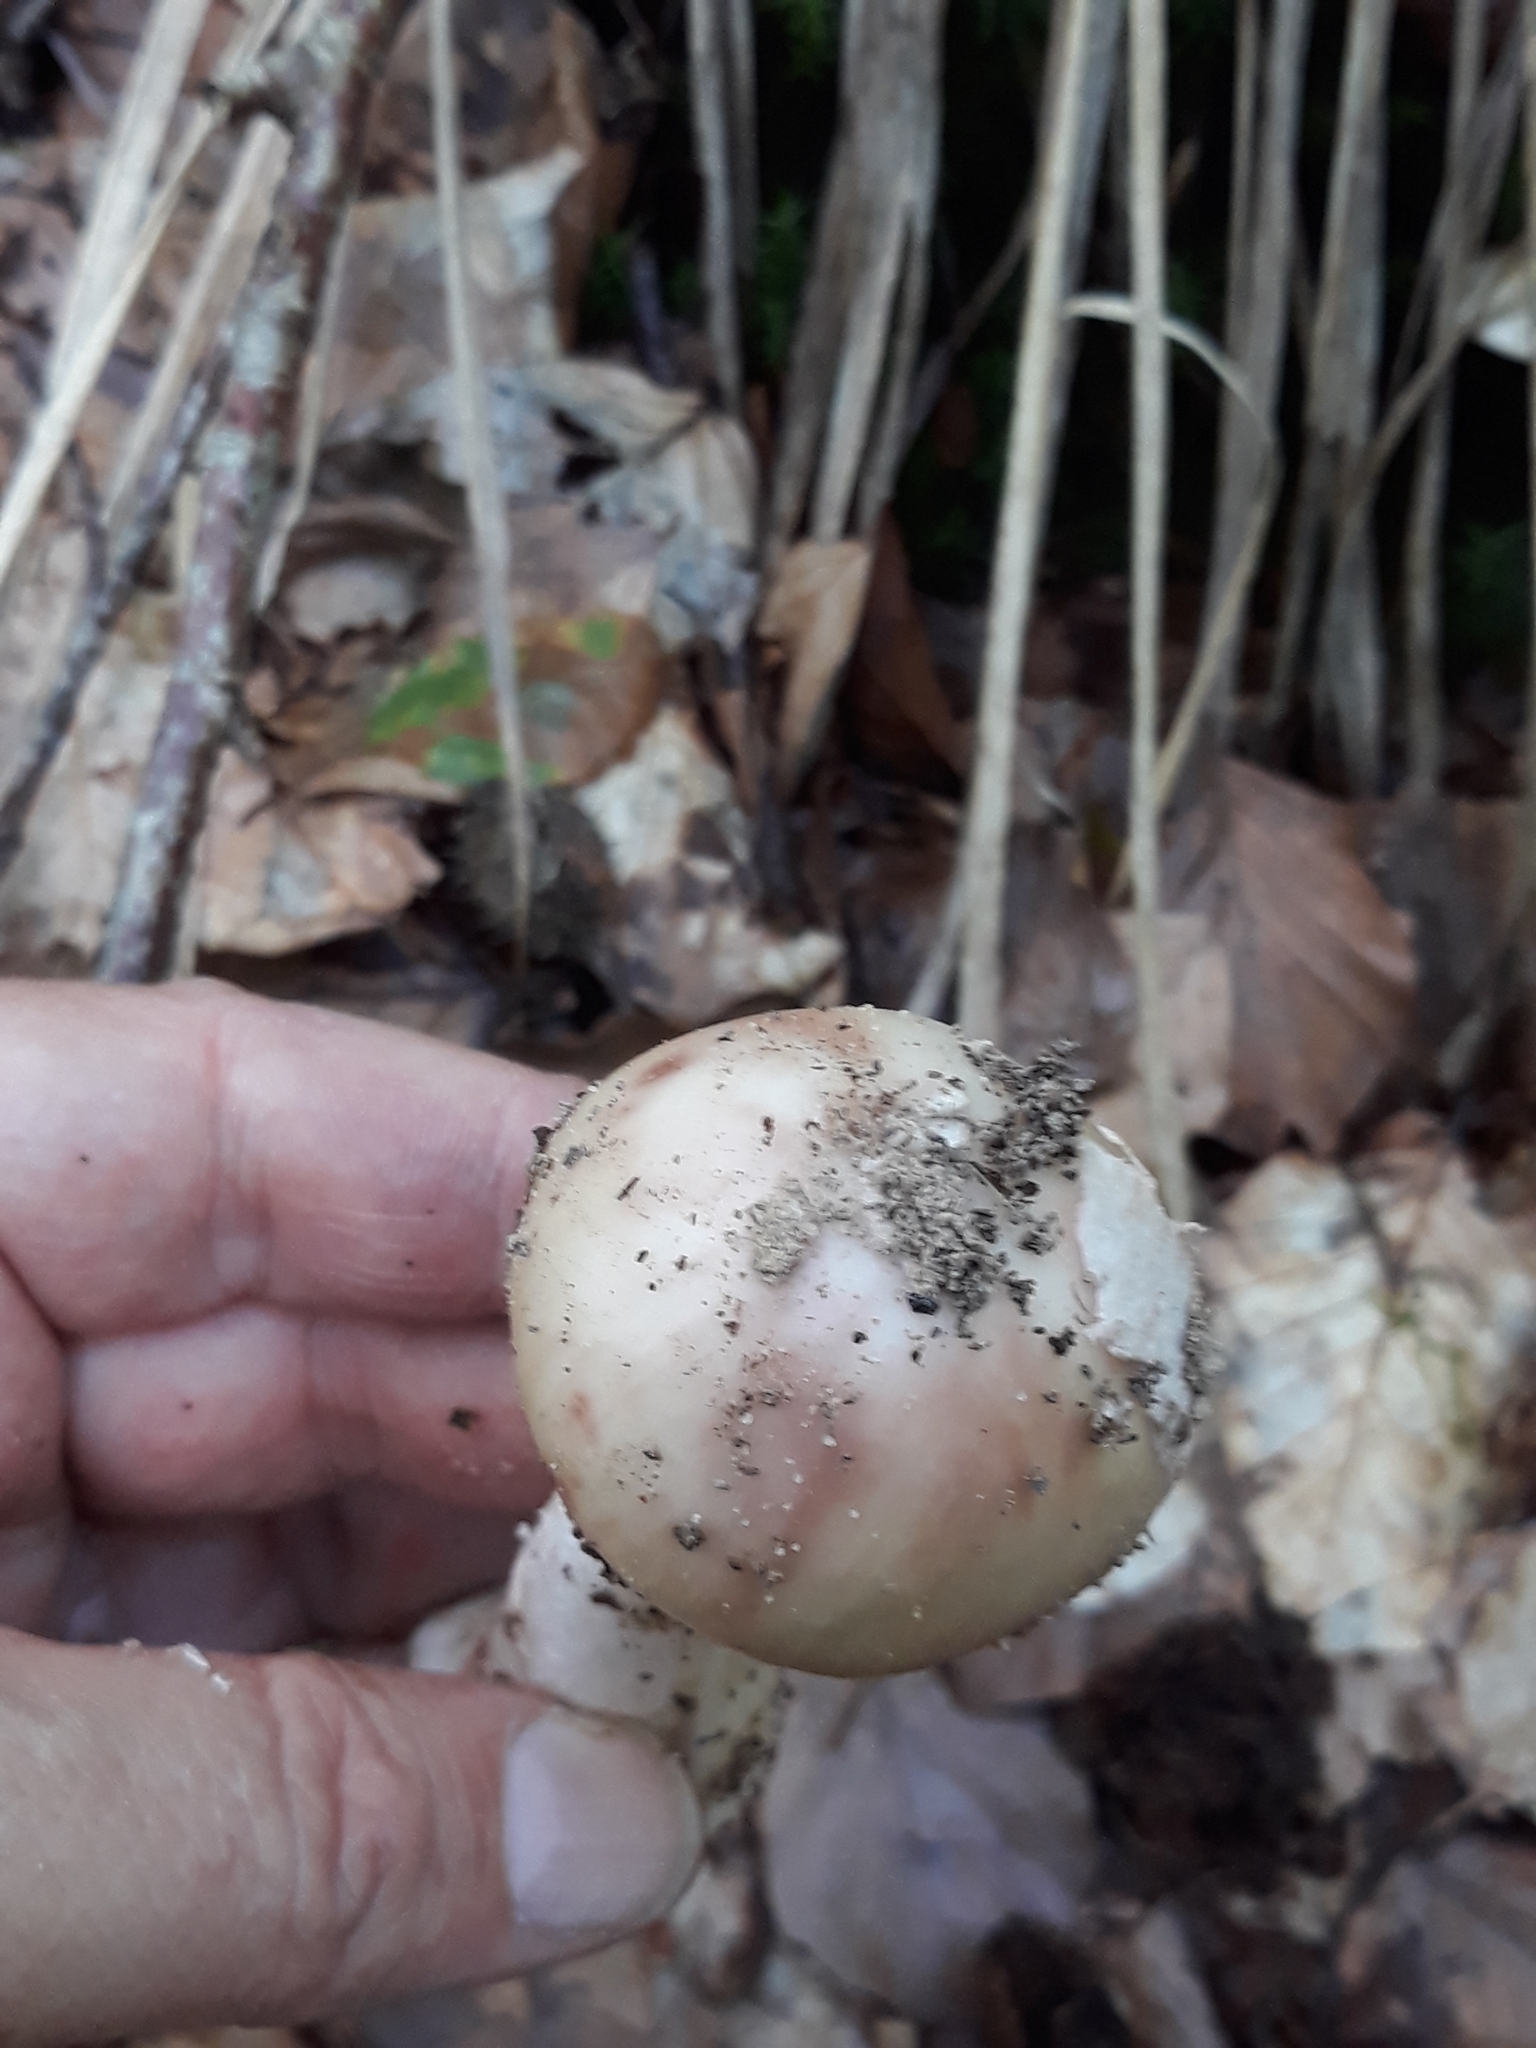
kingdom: Fungi
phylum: Basidiomycota
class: Agaricomycetes
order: Agaricales
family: Amanitaceae
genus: Amanita
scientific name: Amanita rubescens
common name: Blusher
